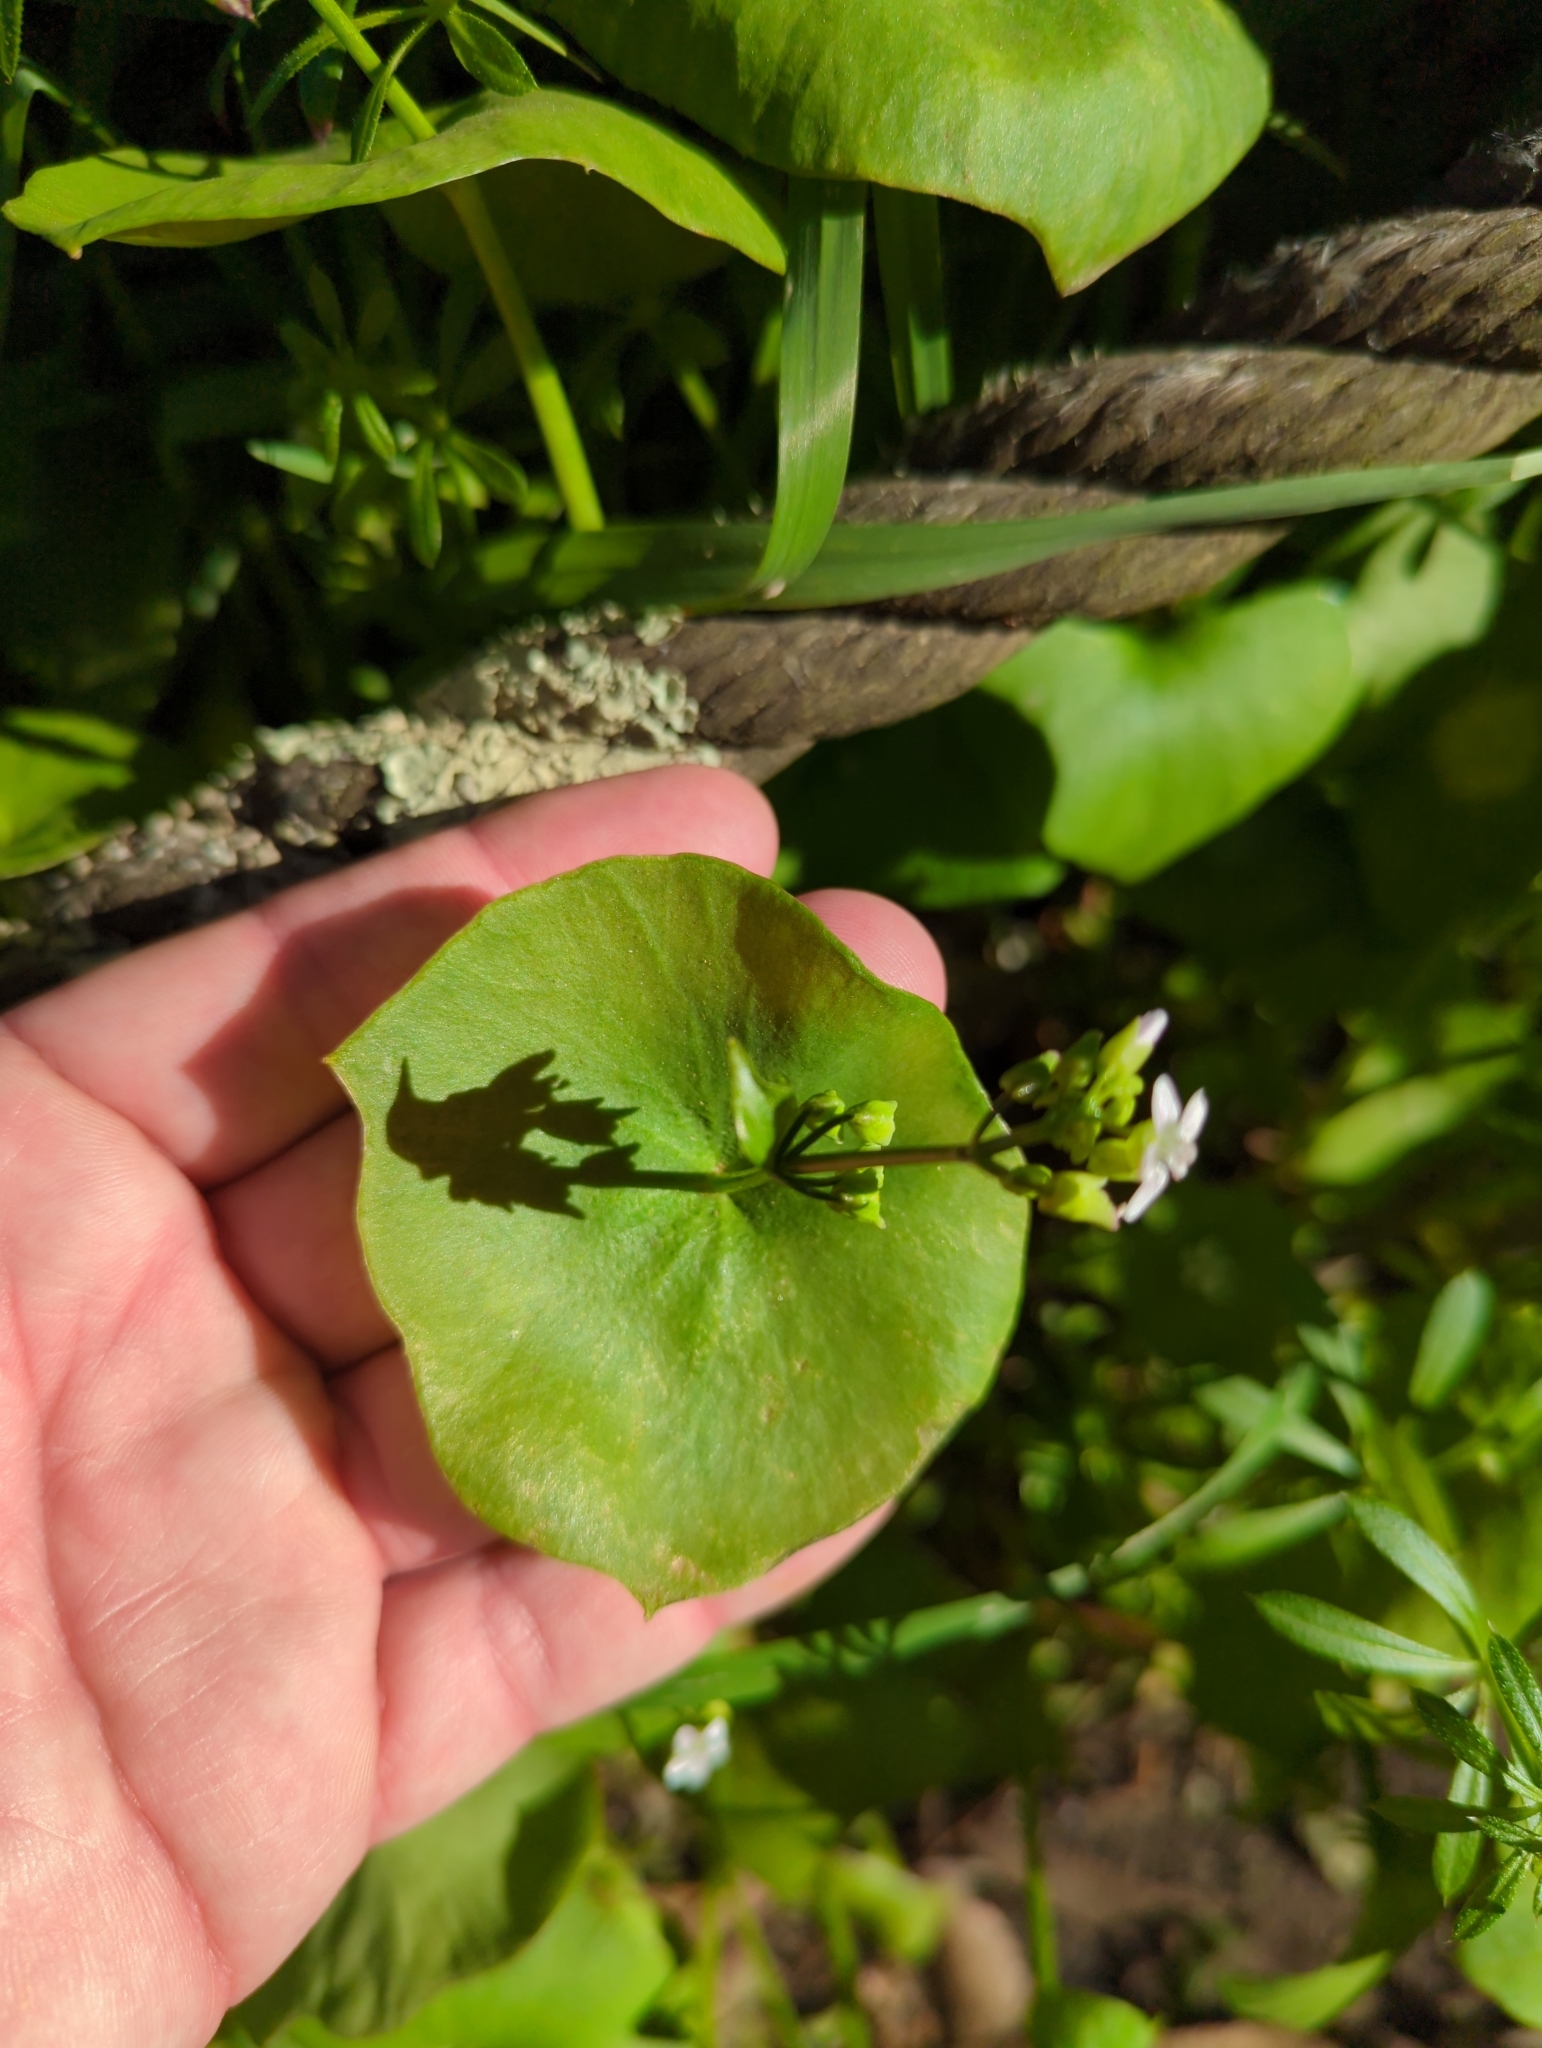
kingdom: Plantae
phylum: Tracheophyta
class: Magnoliopsida
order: Caryophyllales
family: Montiaceae
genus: Claytonia
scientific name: Claytonia perfoliata
